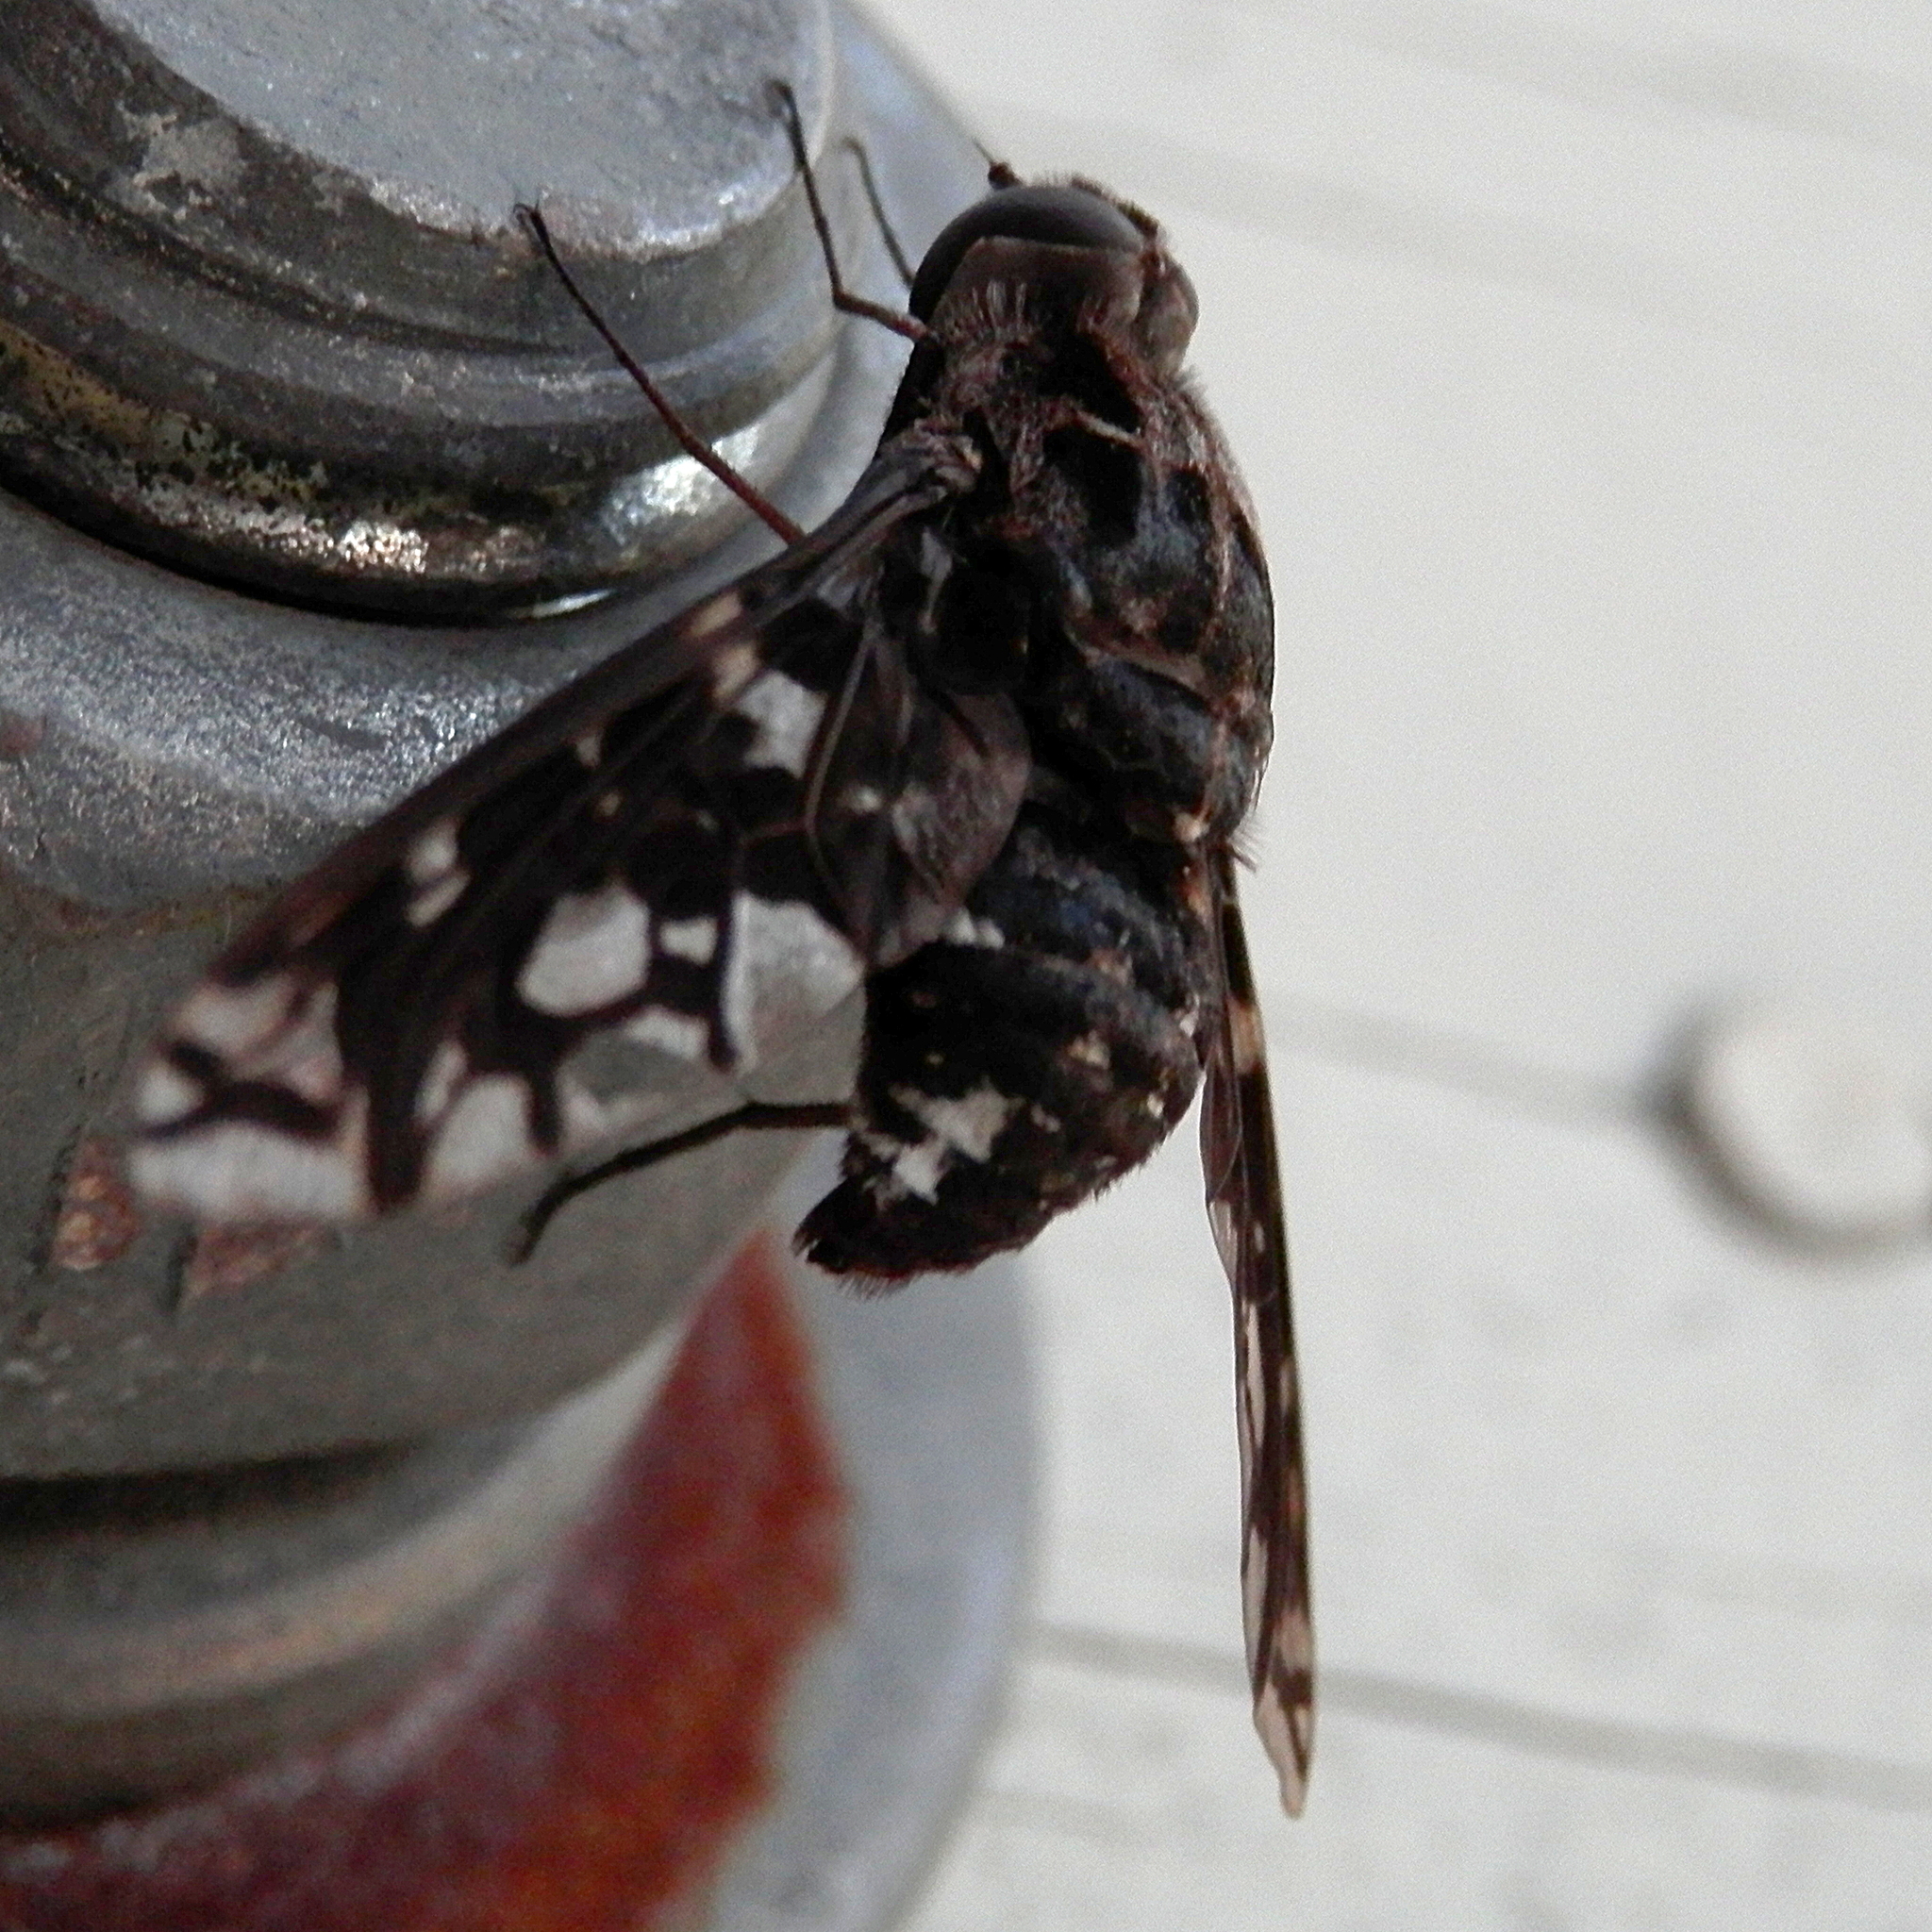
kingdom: Animalia
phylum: Arthropoda
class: Insecta
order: Diptera
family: Bombyliidae
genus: Xenox
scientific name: Xenox tigrinus
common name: Tiger bee fly
